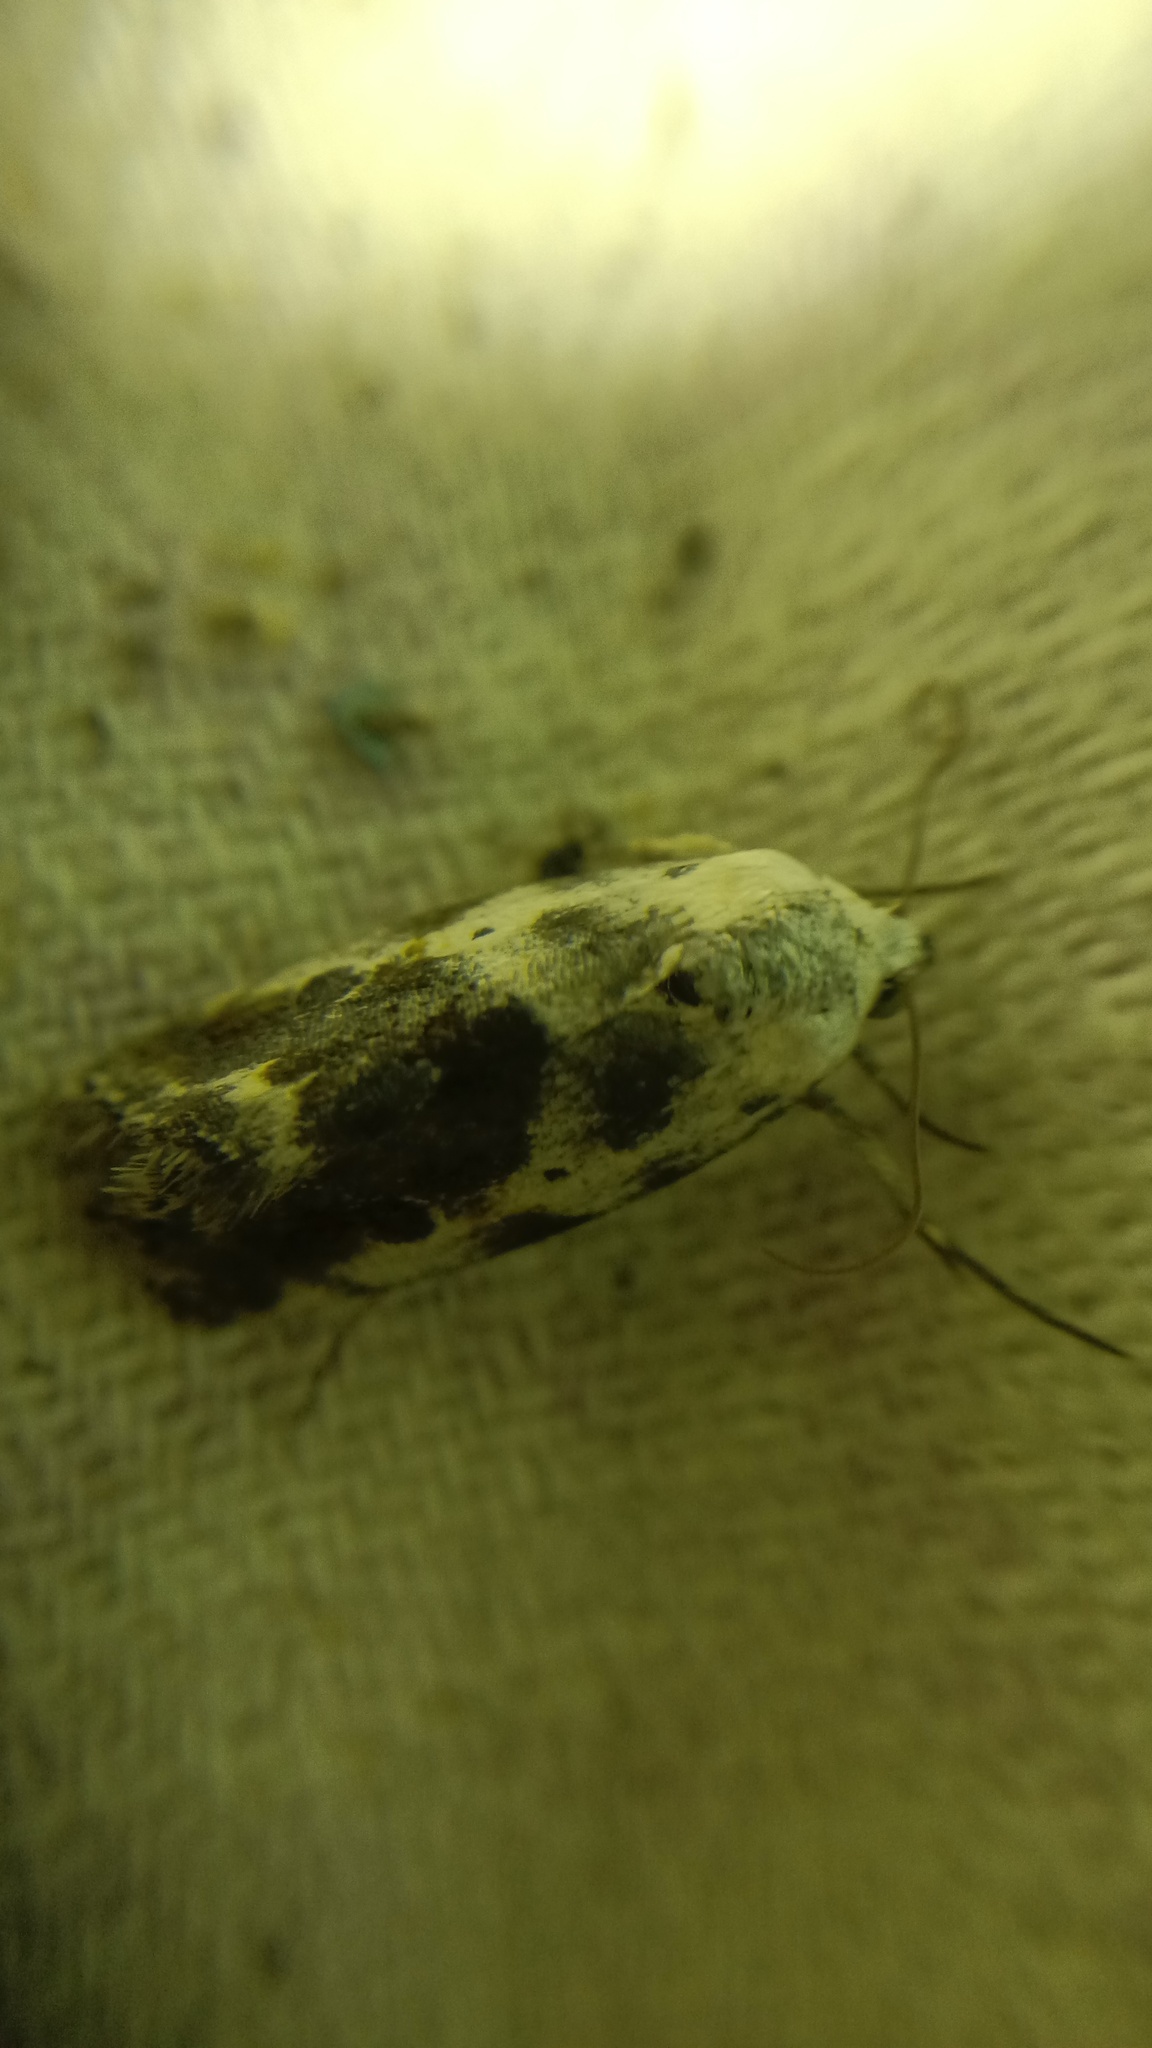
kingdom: Animalia
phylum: Arthropoda
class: Insecta
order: Lepidoptera
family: Noctuidae
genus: Acontia
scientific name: Acontia candefacta
